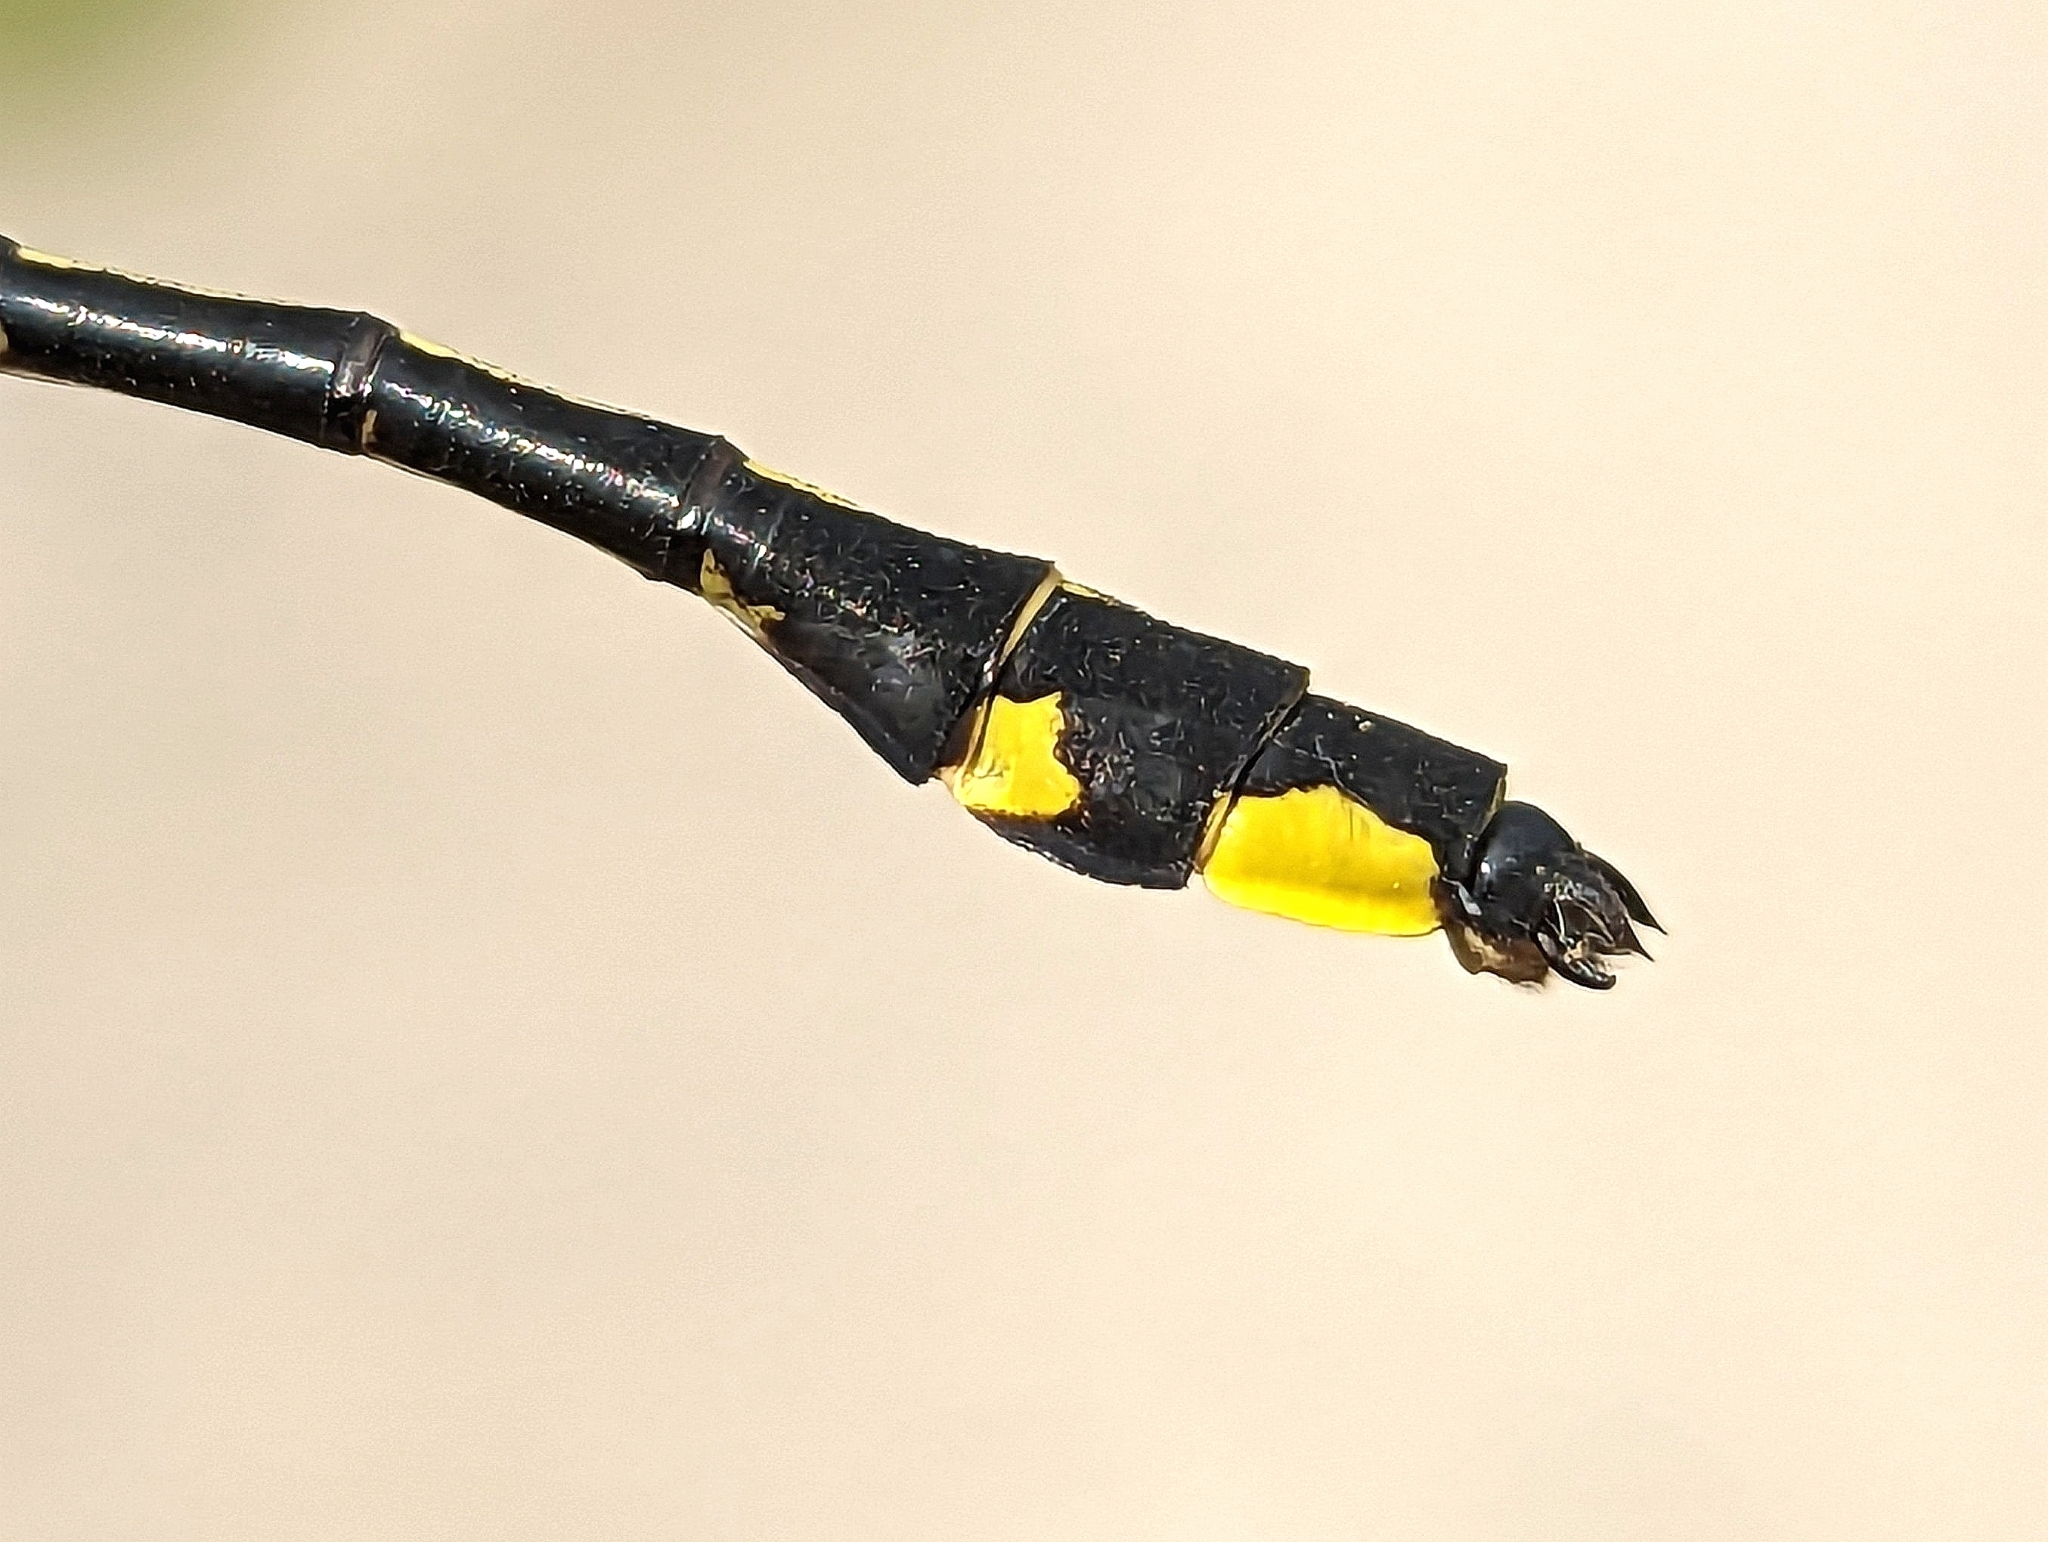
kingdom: Animalia
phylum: Arthropoda
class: Insecta
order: Odonata
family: Gomphidae
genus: Gomphurus
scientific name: Gomphurus fraternus
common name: Midland clubtail
